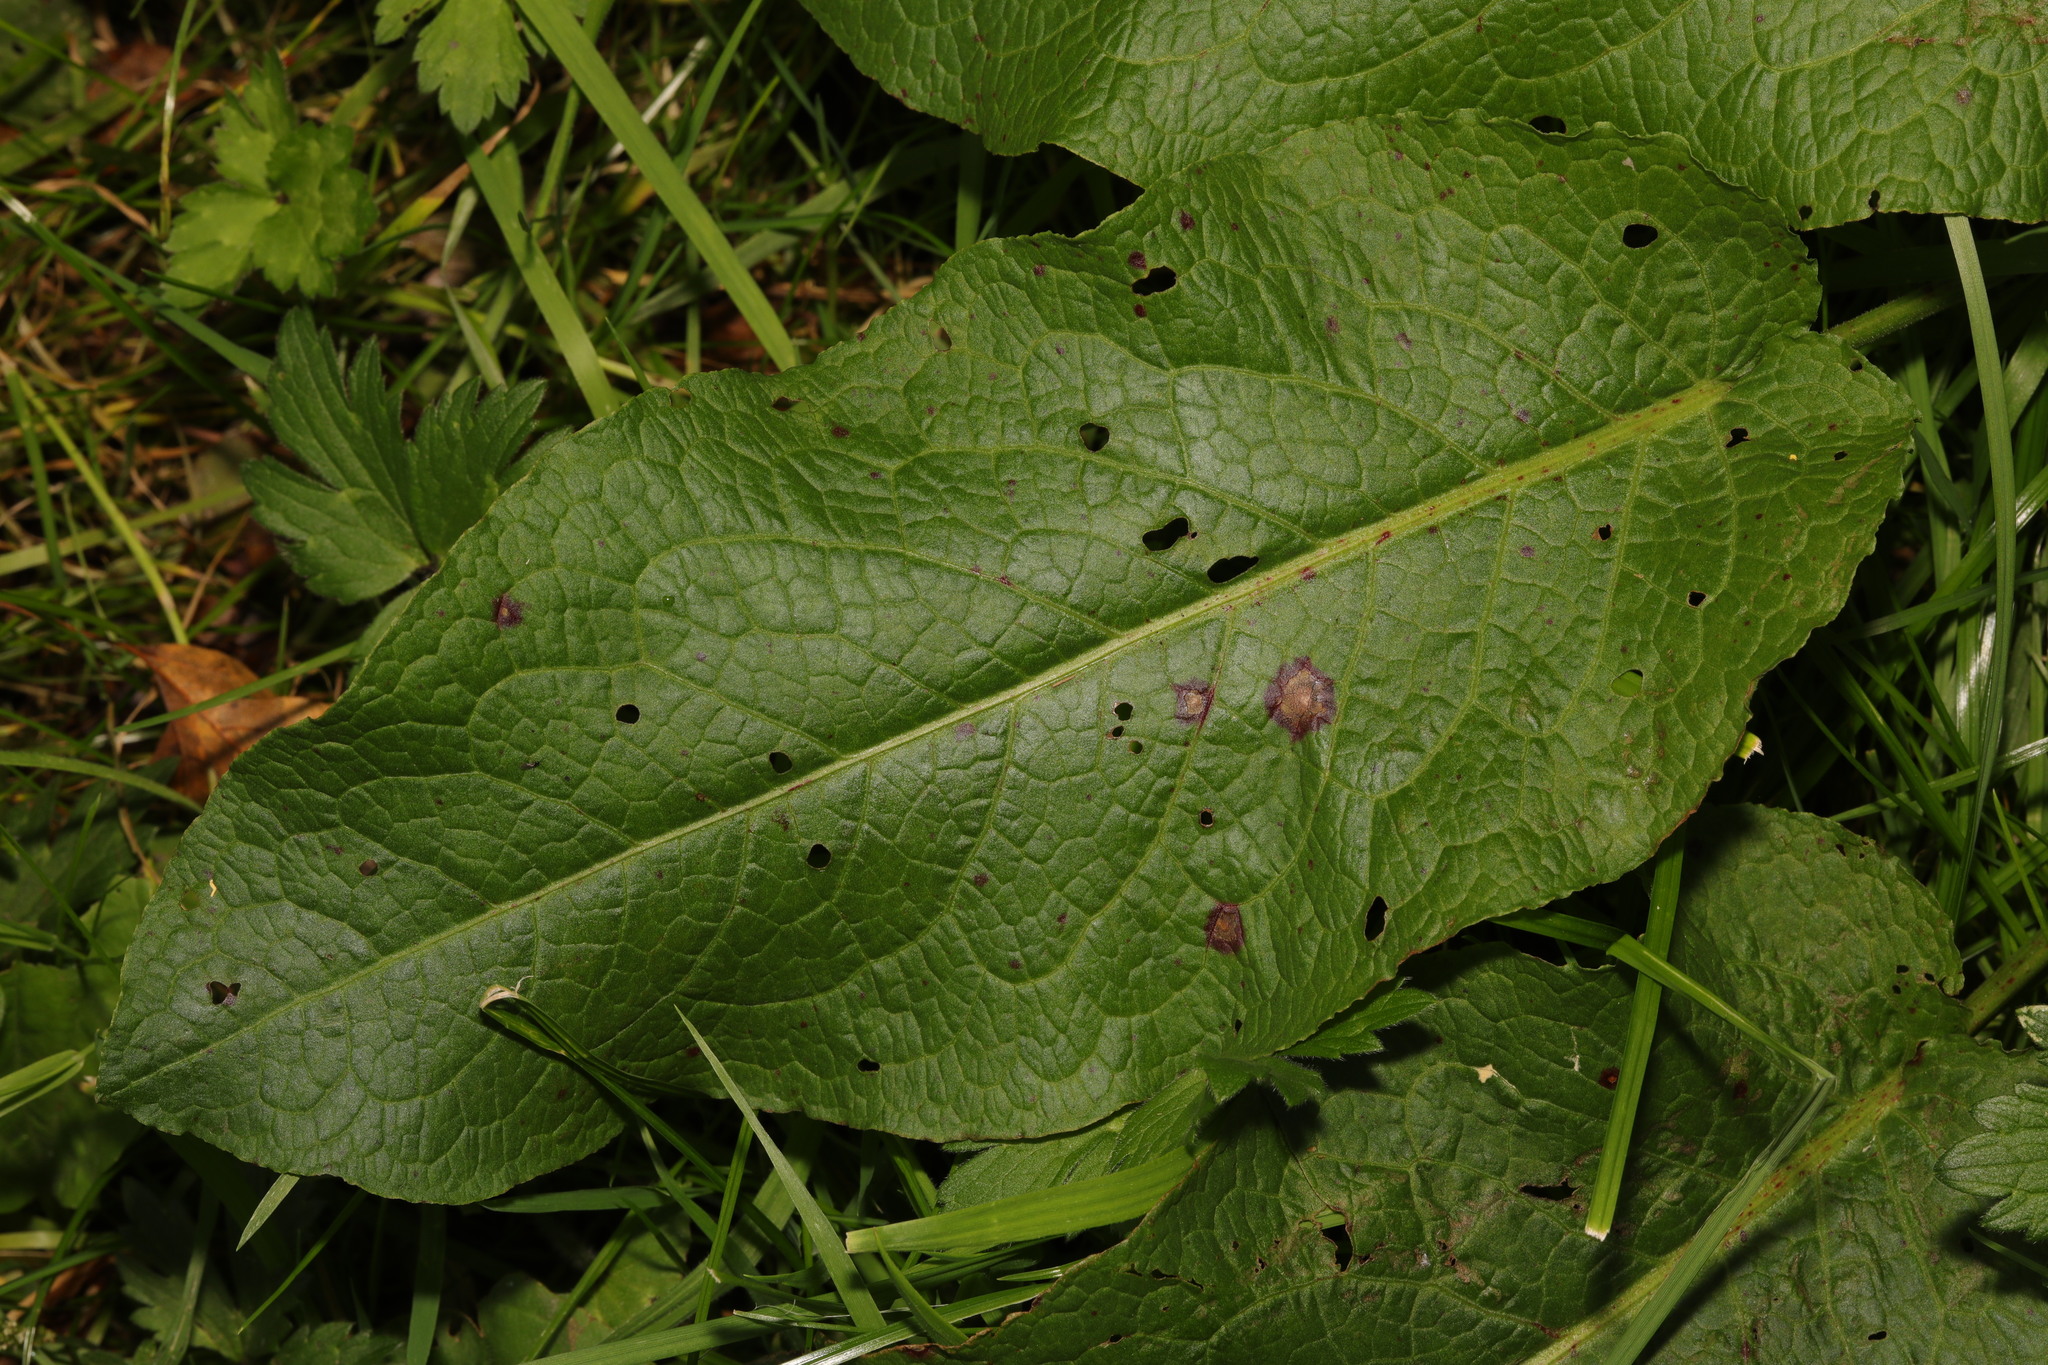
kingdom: Plantae
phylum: Tracheophyta
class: Magnoliopsida
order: Caryophyllales
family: Polygonaceae
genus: Rumex
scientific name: Rumex obtusifolius
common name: Bitter dock
